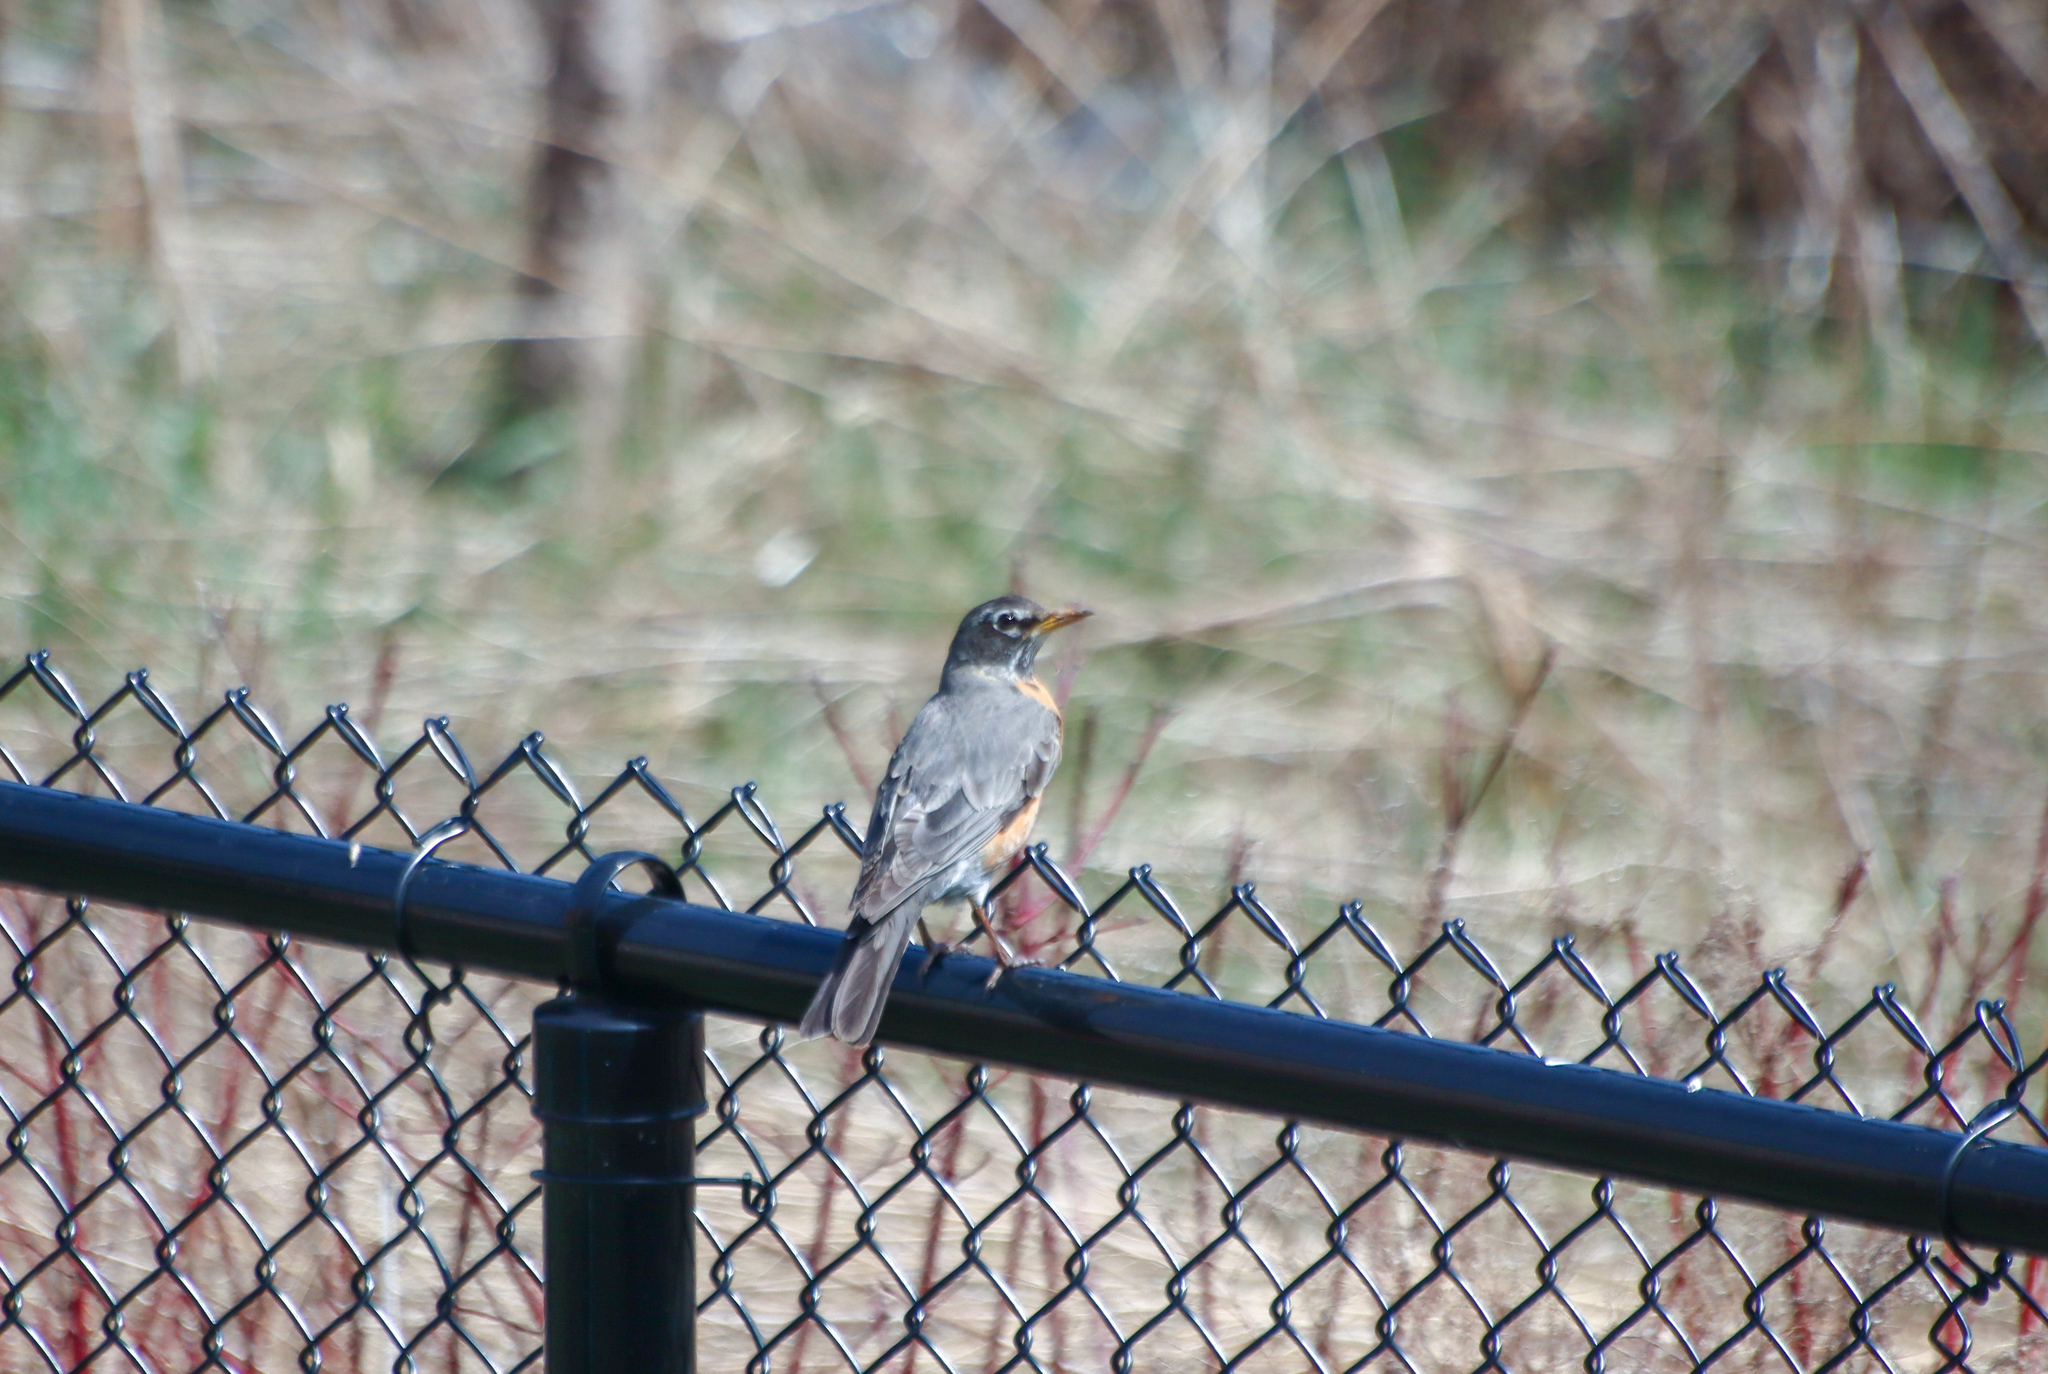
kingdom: Animalia
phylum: Chordata
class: Aves
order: Passeriformes
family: Turdidae
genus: Turdus
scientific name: Turdus migratorius
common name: American robin
